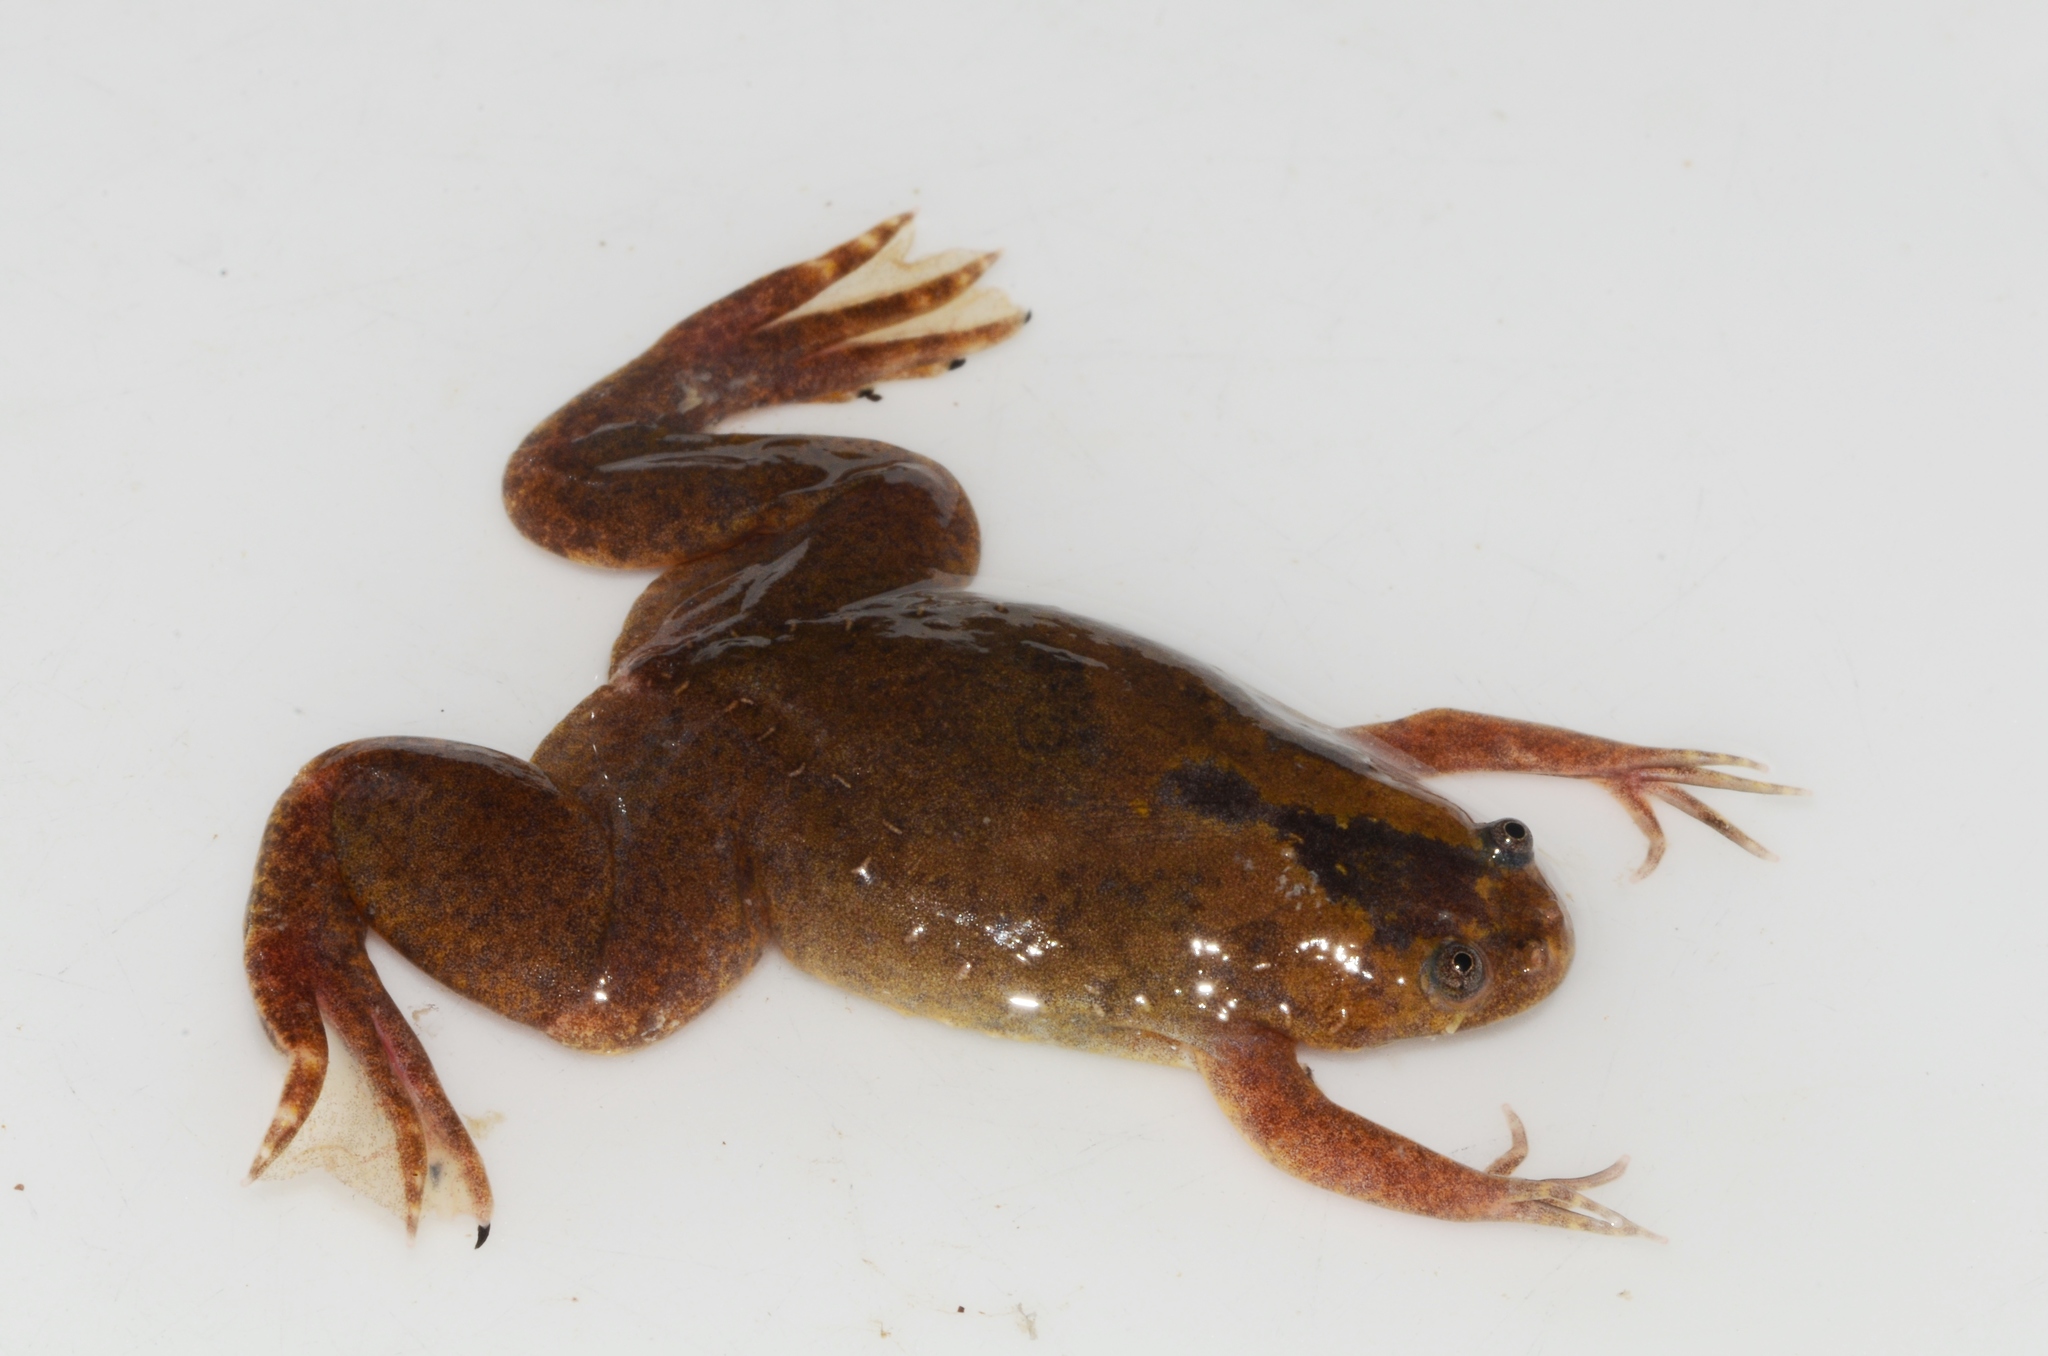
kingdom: Animalia
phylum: Chordata
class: Amphibia
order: Anura
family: Pipidae
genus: Xenopus
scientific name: Xenopus parafraseri
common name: Upland clawed frog
